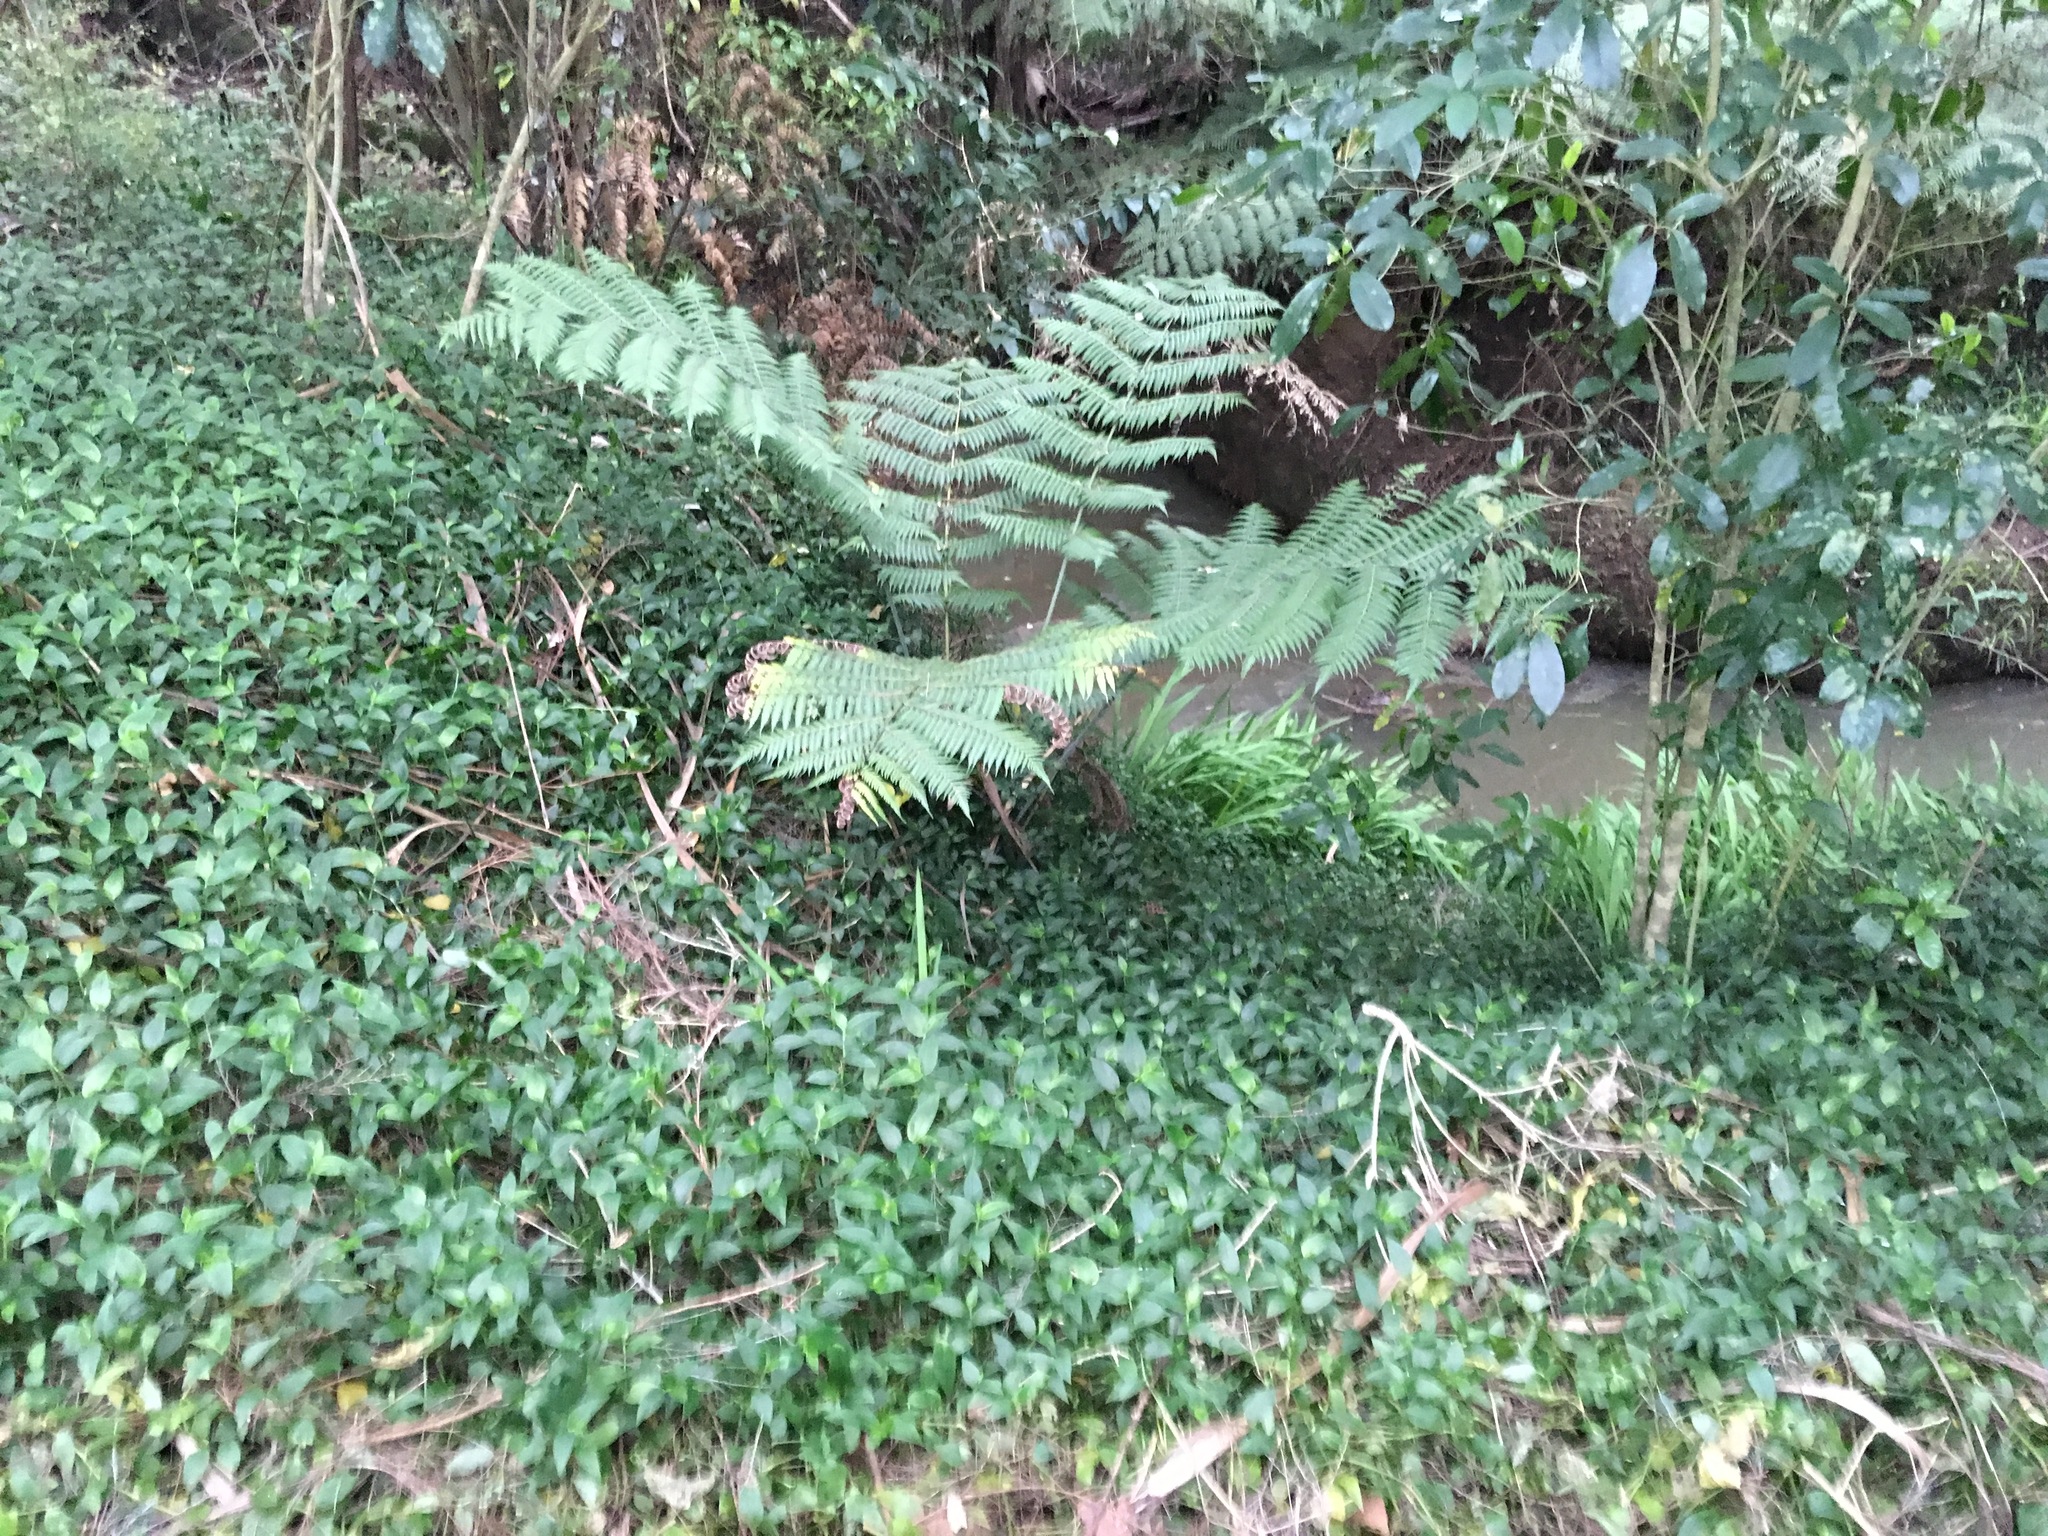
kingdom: Plantae
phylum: Tracheophyta
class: Liliopsida
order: Commelinales
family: Commelinaceae
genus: Tradescantia
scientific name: Tradescantia fluminensis
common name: Wandering-jew
